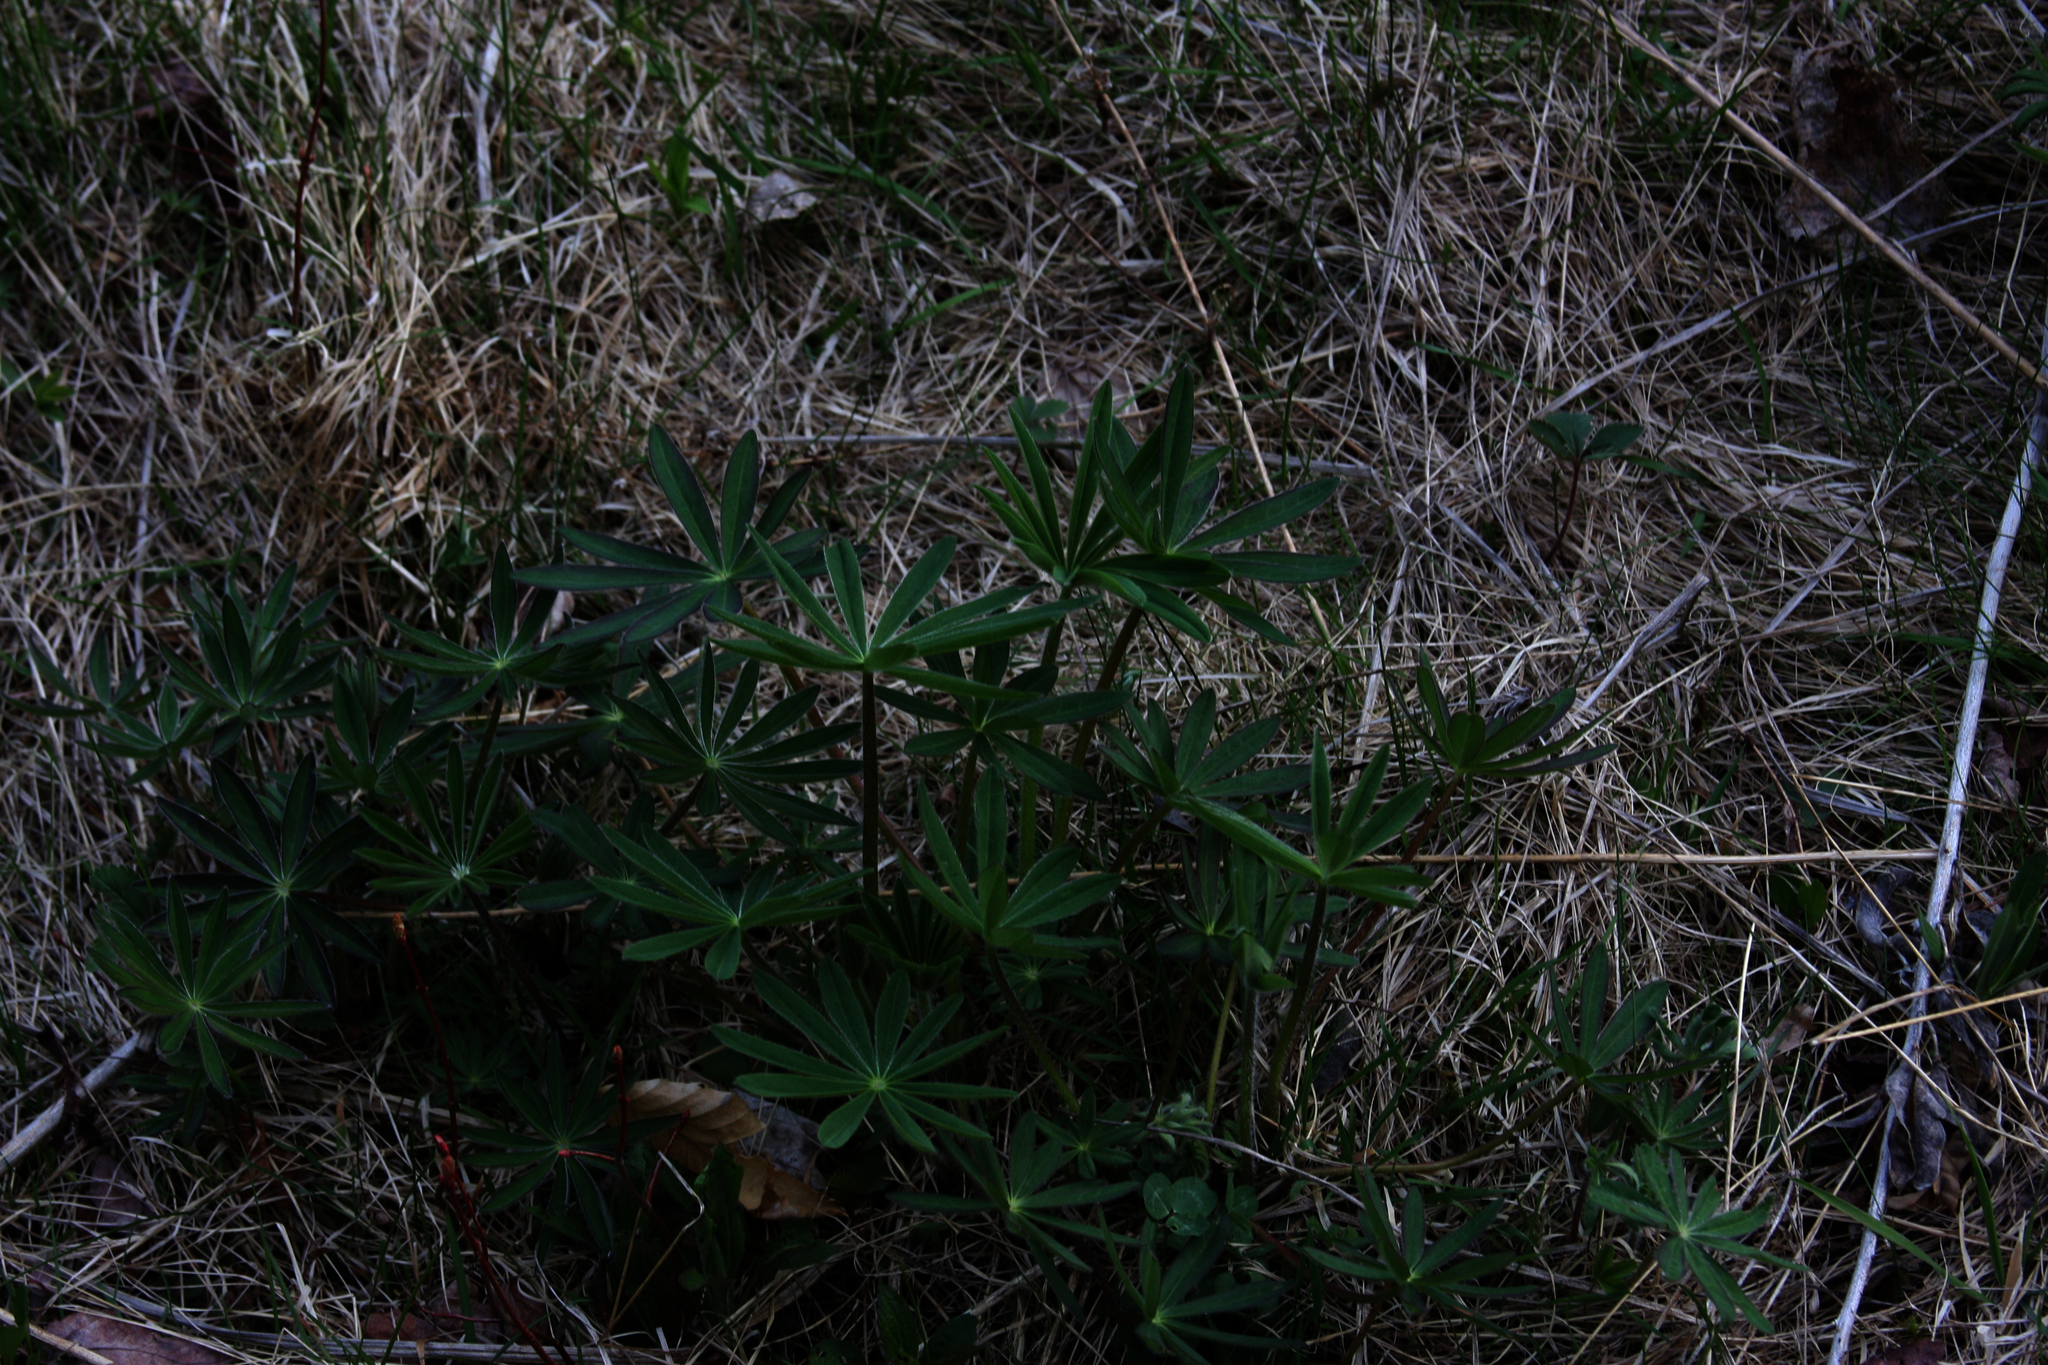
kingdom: Plantae
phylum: Tracheophyta
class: Magnoliopsida
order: Fabales
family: Fabaceae
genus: Lupinus
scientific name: Lupinus polyphyllus
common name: Garden lupin
